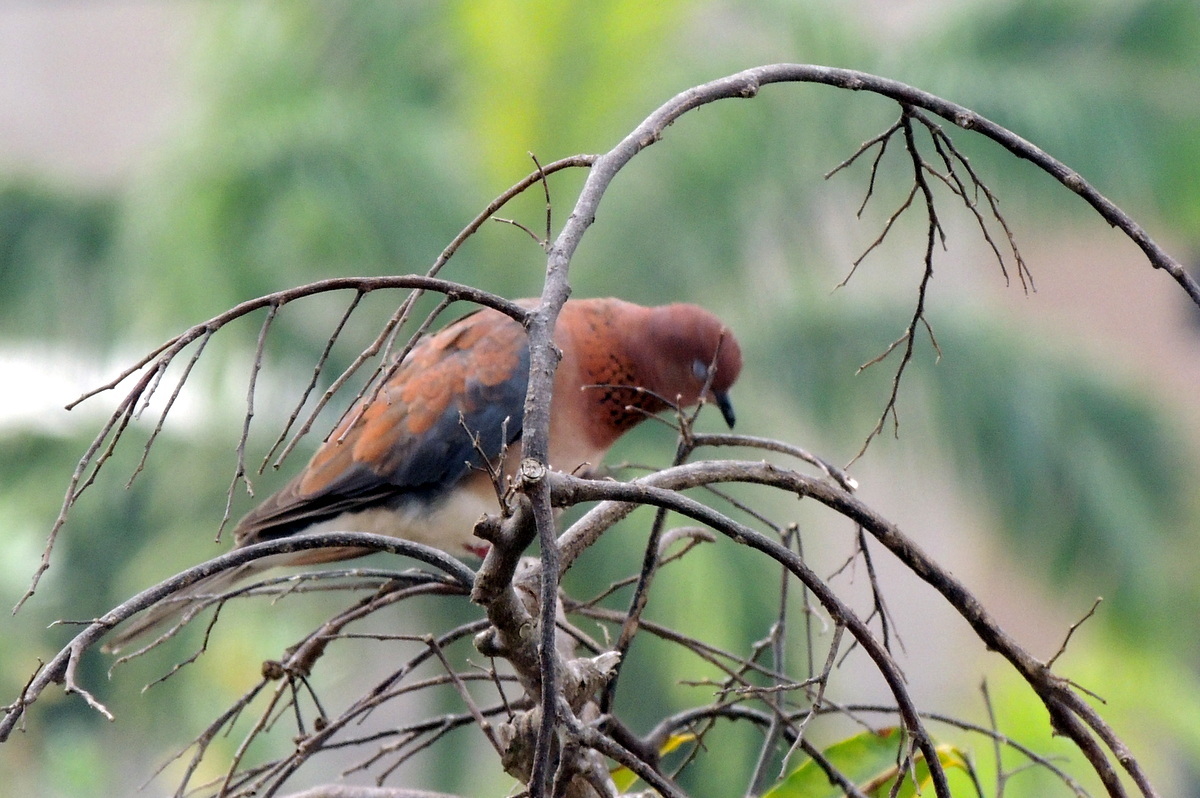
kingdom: Animalia
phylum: Chordata
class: Aves
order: Columbiformes
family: Columbidae
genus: Spilopelia
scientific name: Spilopelia senegalensis
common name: Laughing dove
